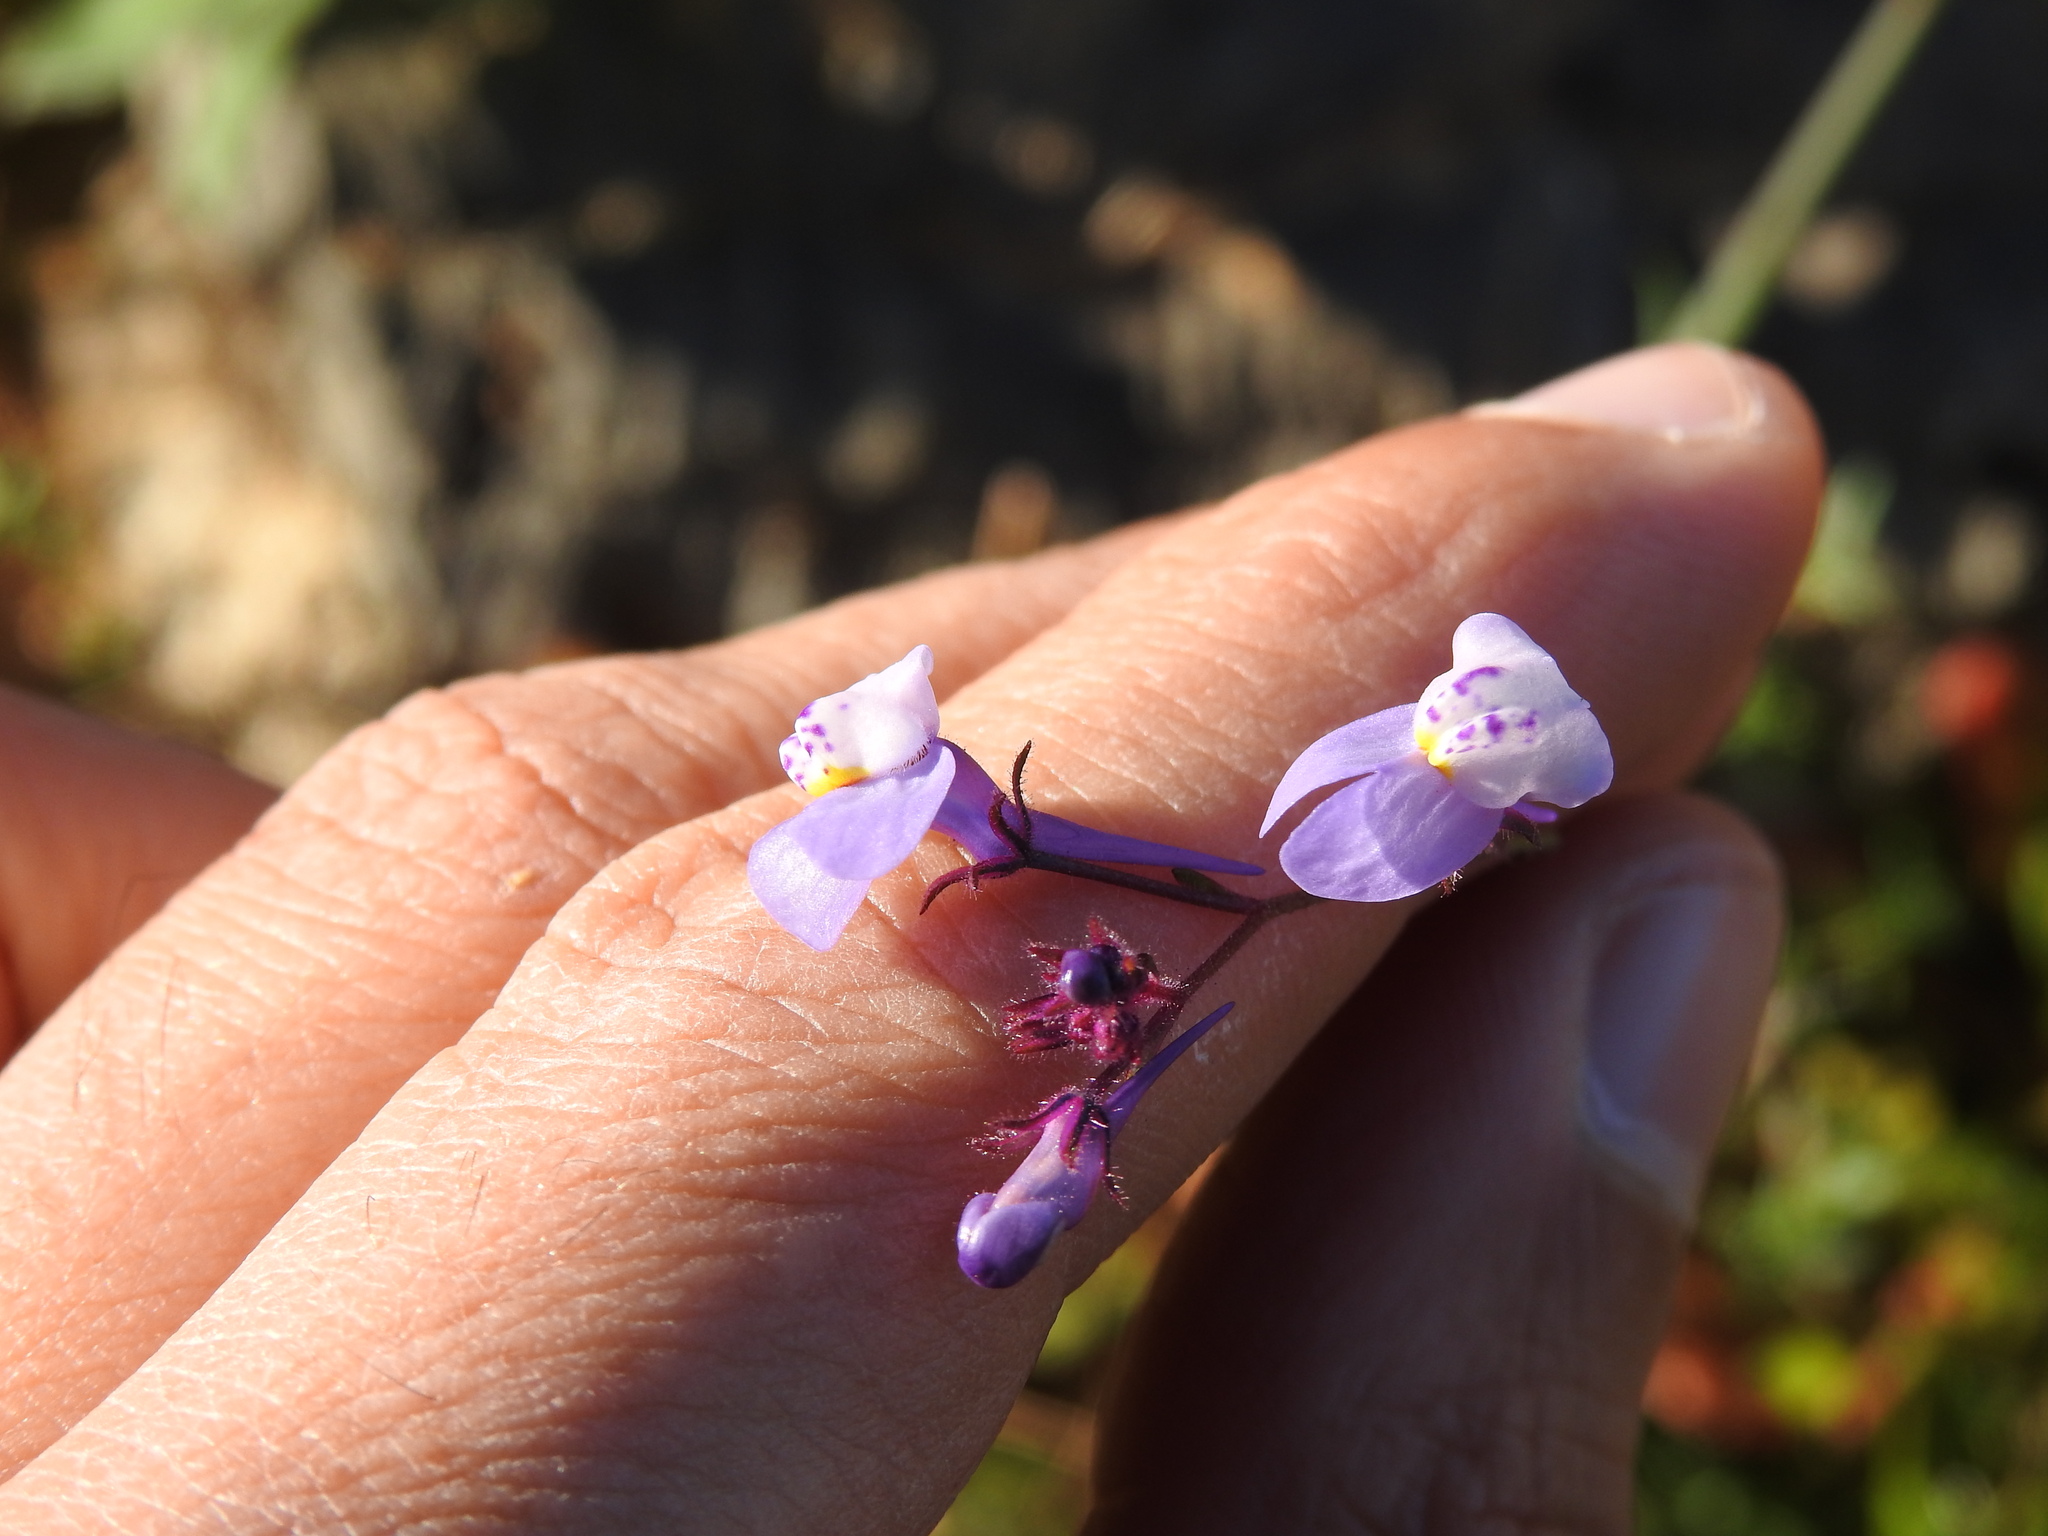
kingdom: Plantae
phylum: Tracheophyta
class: Magnoliopsida
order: Lamiales
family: Plantaginaceae
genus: Linaria
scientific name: Linaria algarviana
